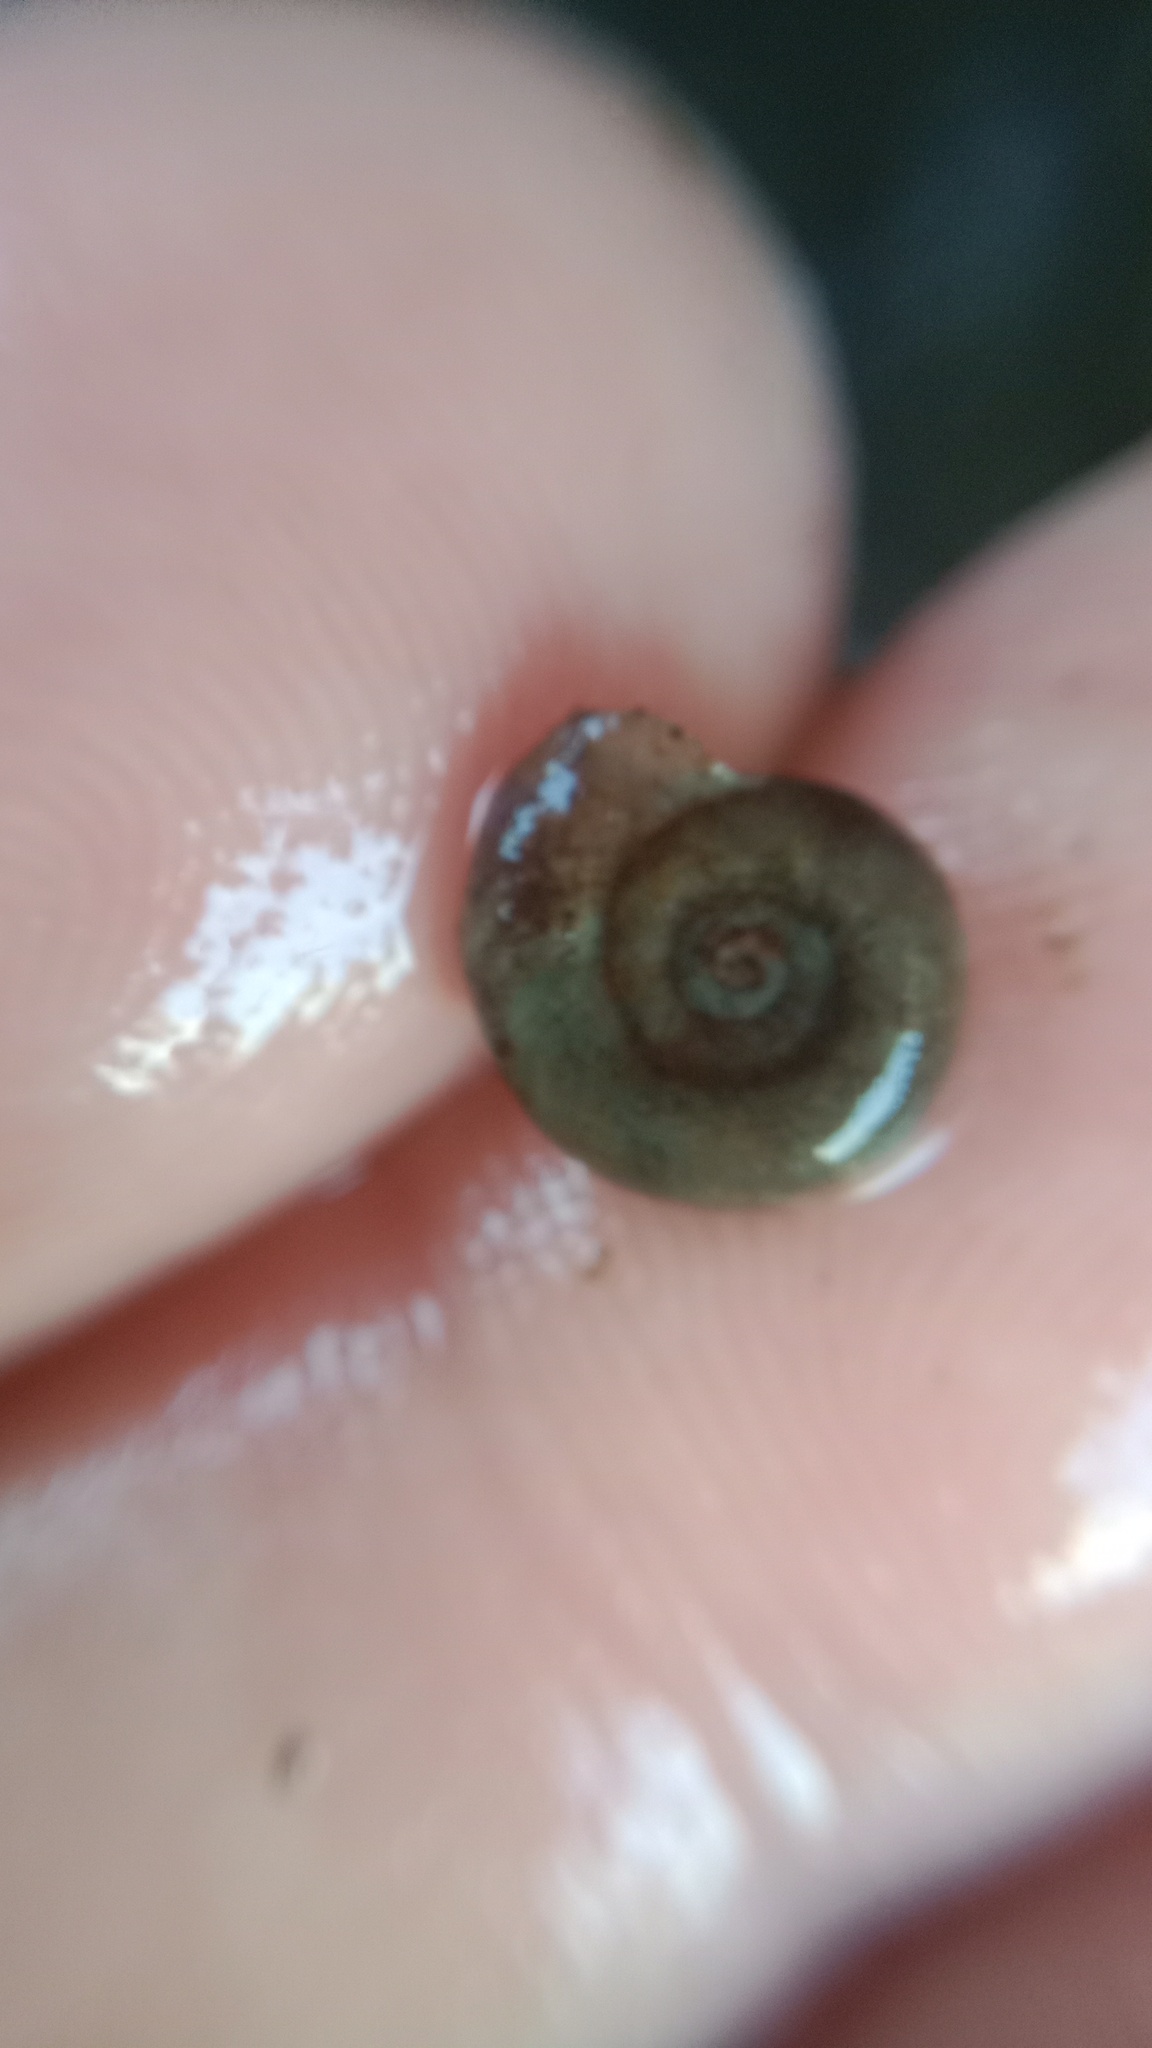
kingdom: Animalia
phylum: Mollusca
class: Gastropoda
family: Planorbidae
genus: Planorbis
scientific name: Planorbis planorbis
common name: Margined ramshorn
